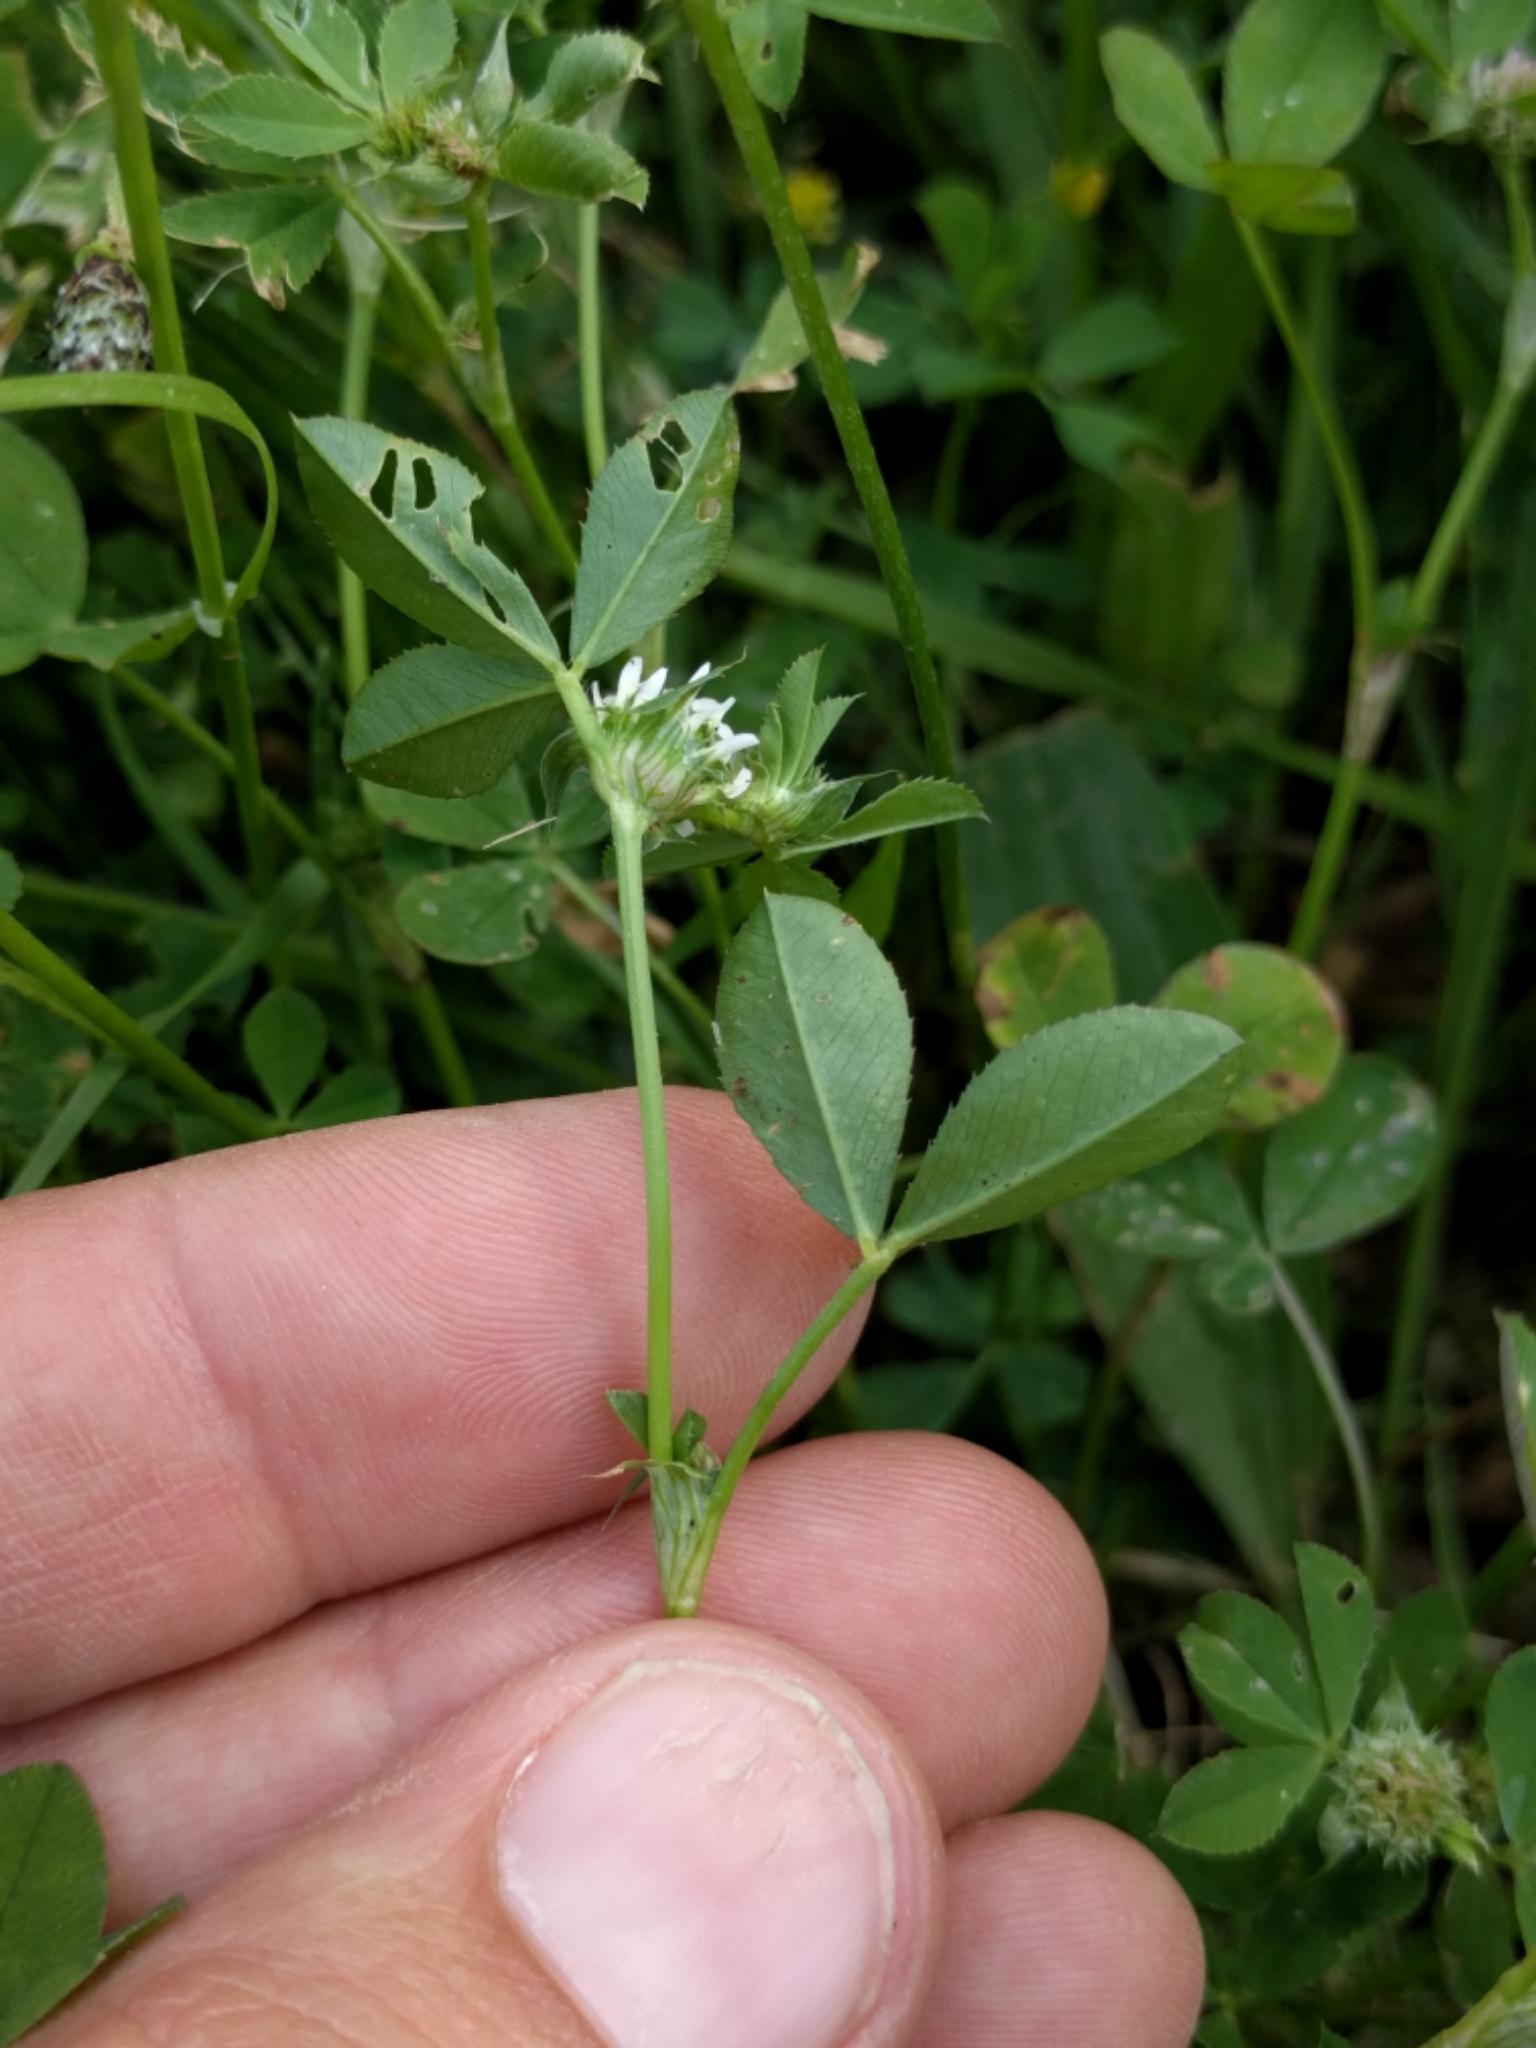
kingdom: Plantae
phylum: Tracheophyta
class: Magnoliopsida
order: Fabales
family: Fabaceae
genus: Trifolium
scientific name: Trifolium glomeratum
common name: Clustered clover
